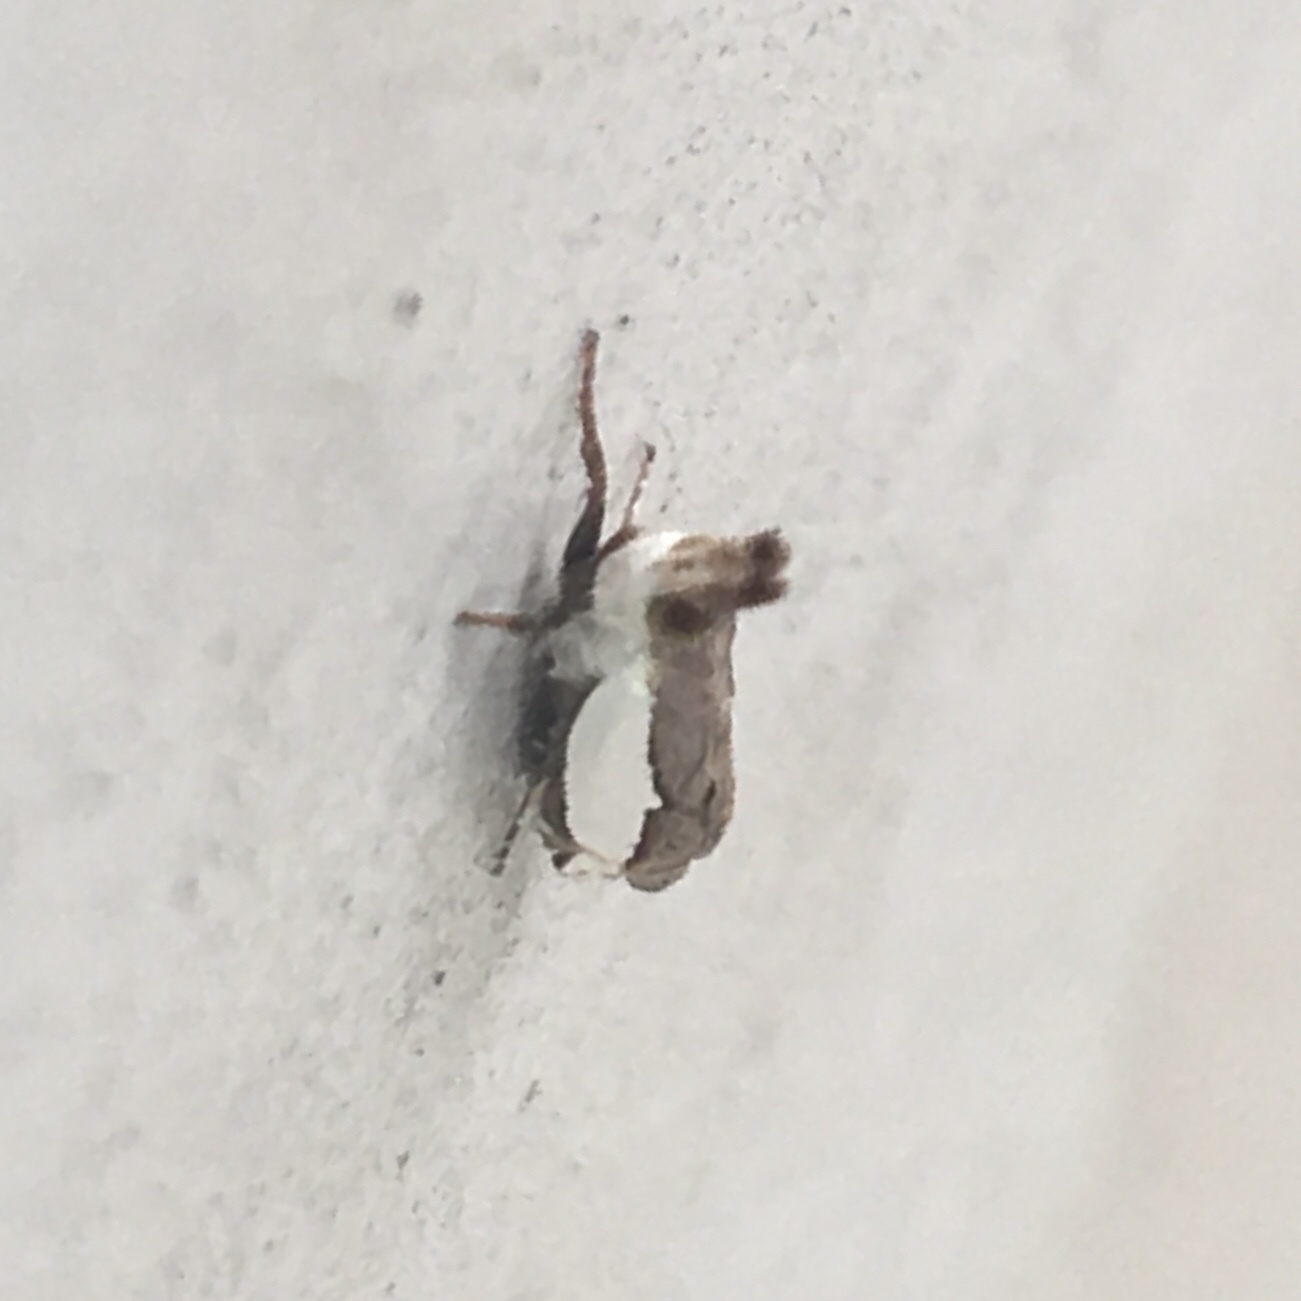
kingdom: Animalia
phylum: Arthropoda
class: Insecta
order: Lepidoptera
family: Crambidae
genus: Crambus
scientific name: Crambus quinquareatus
